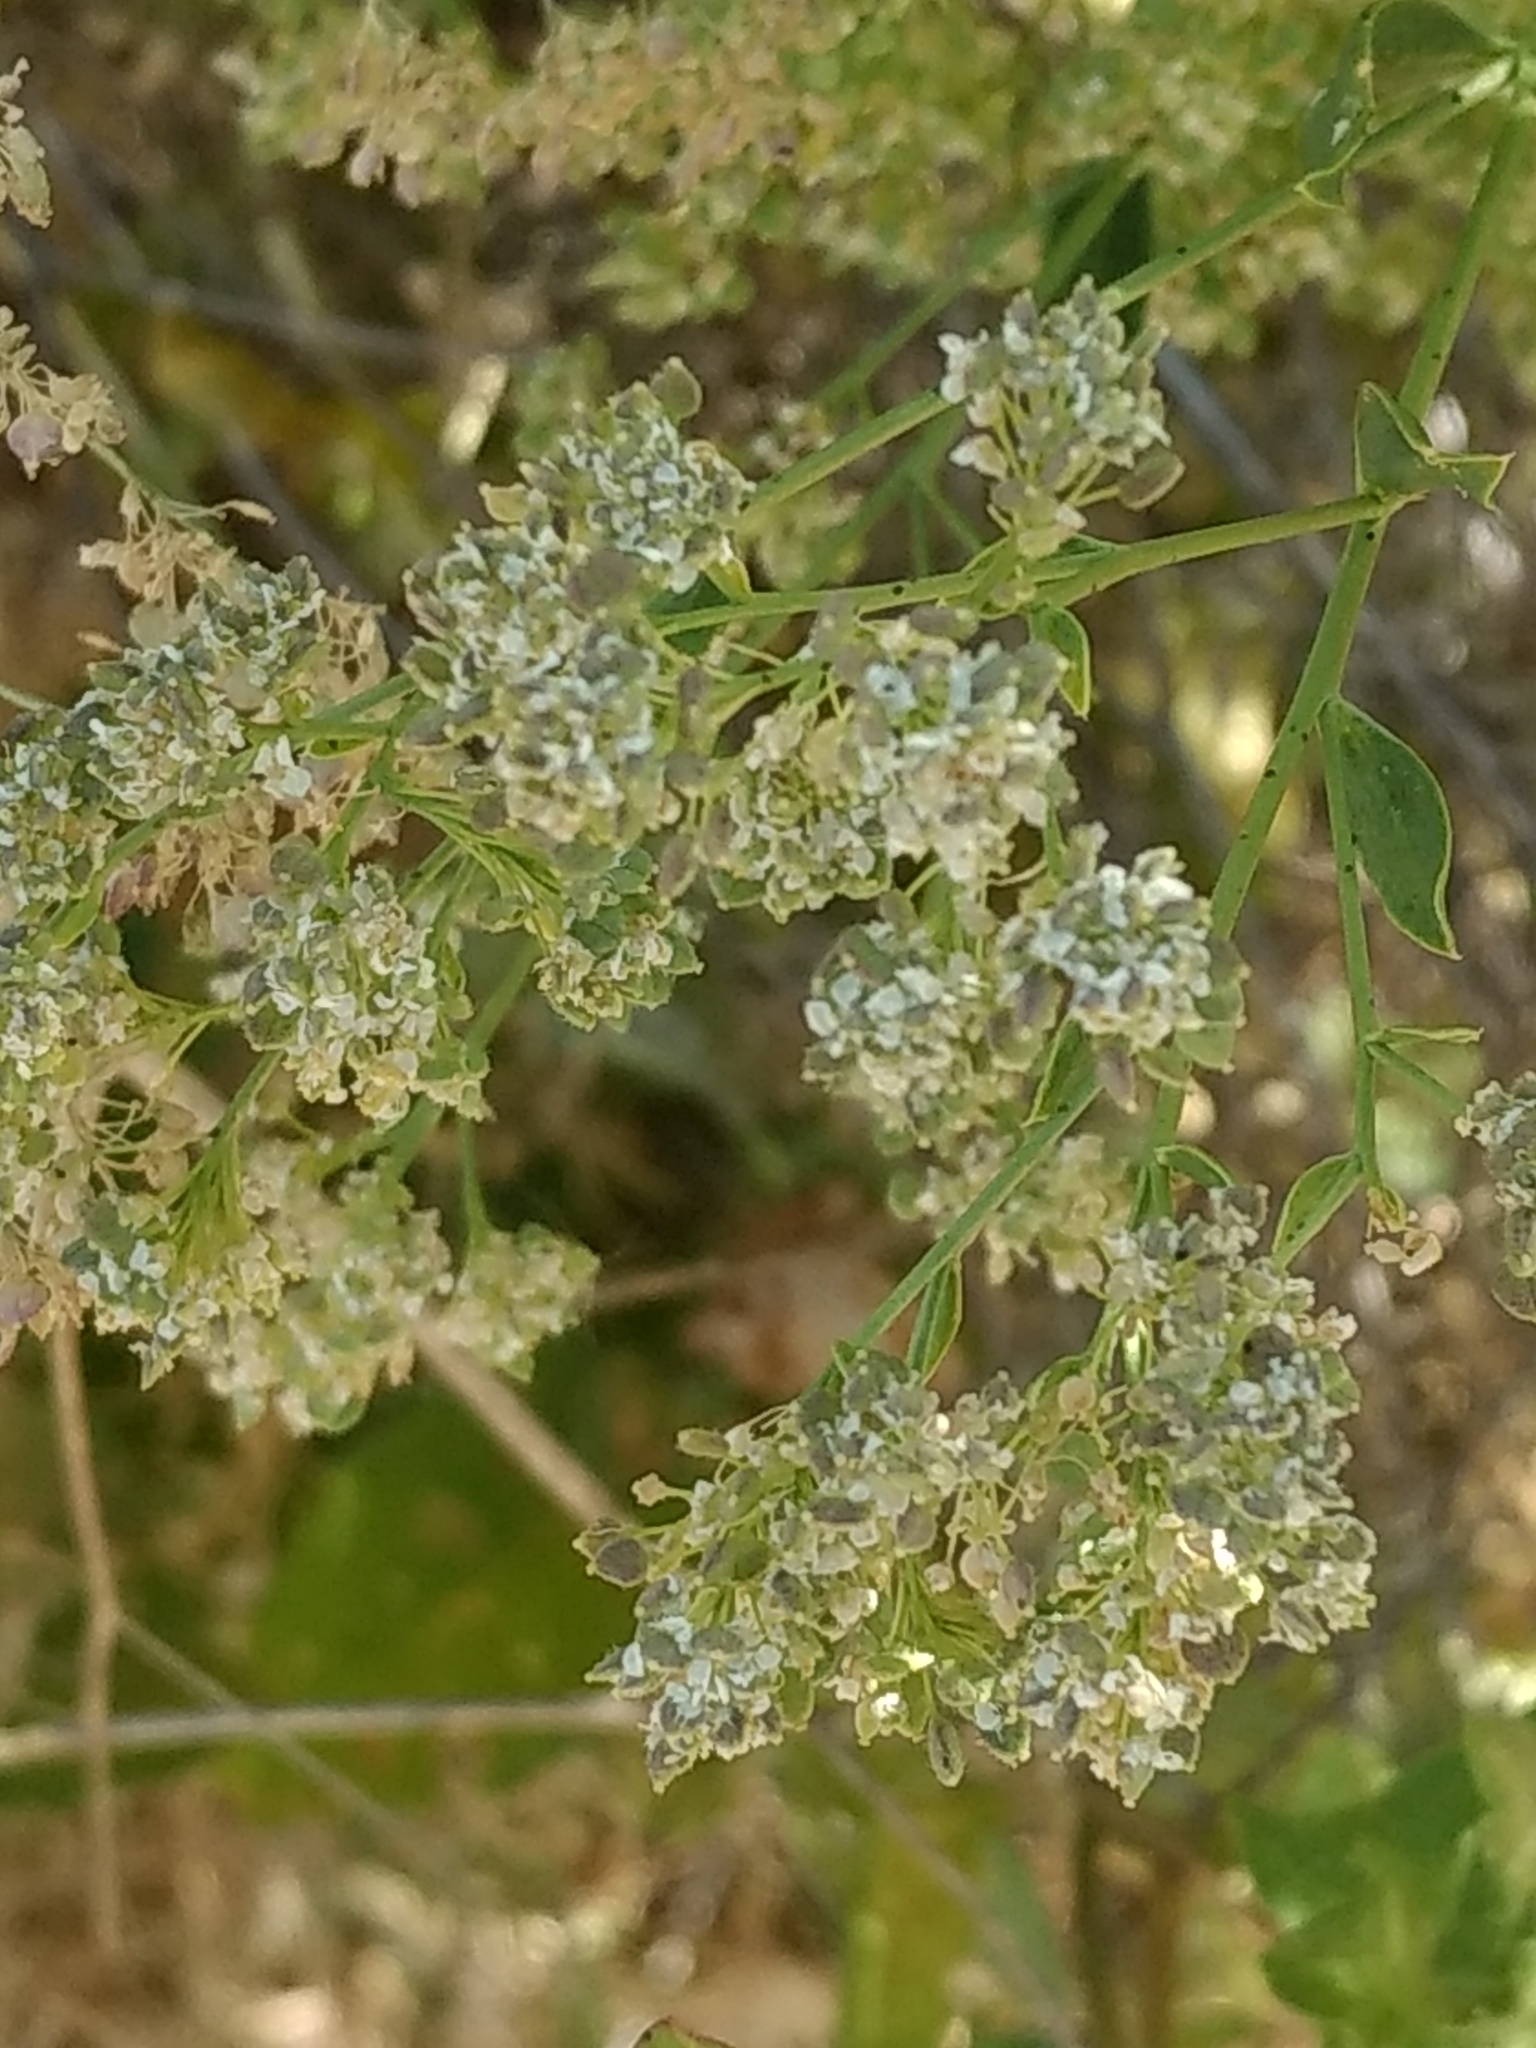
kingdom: Plantae
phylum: Tracheophyta
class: Magnoliopsida
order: Brassicales
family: Brassicaceae
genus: Lepidium
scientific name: Lepidium latifolium
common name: Dittander
